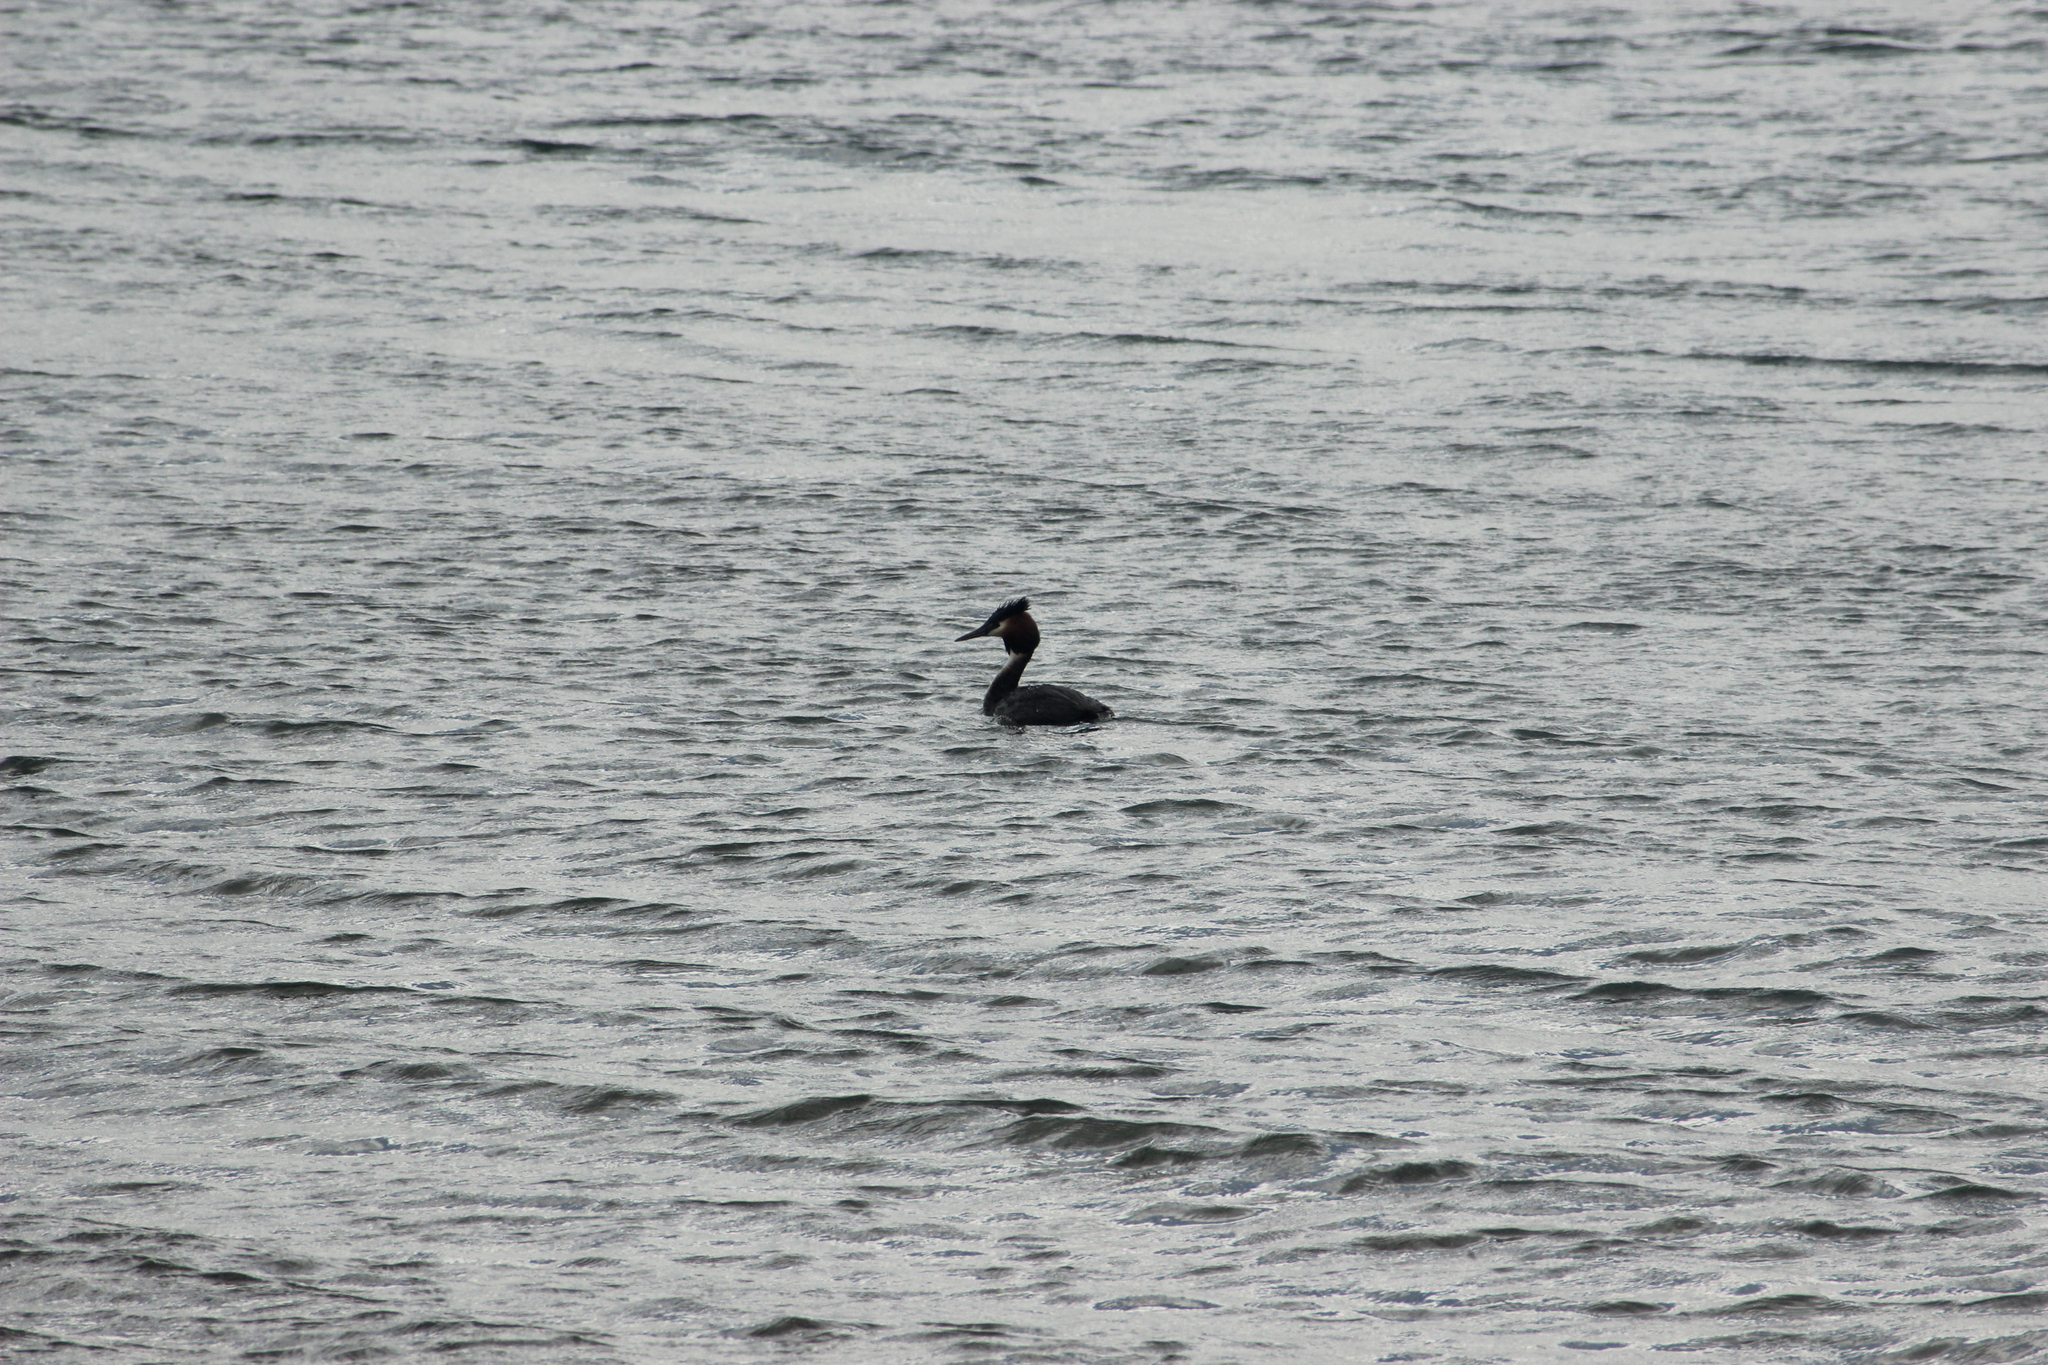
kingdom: Animalia
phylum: Chordata
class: Aves
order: Podicipediformes
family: Podicipedidae
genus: Podiceps
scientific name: Podiceps cristatus
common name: Great crested grebe
